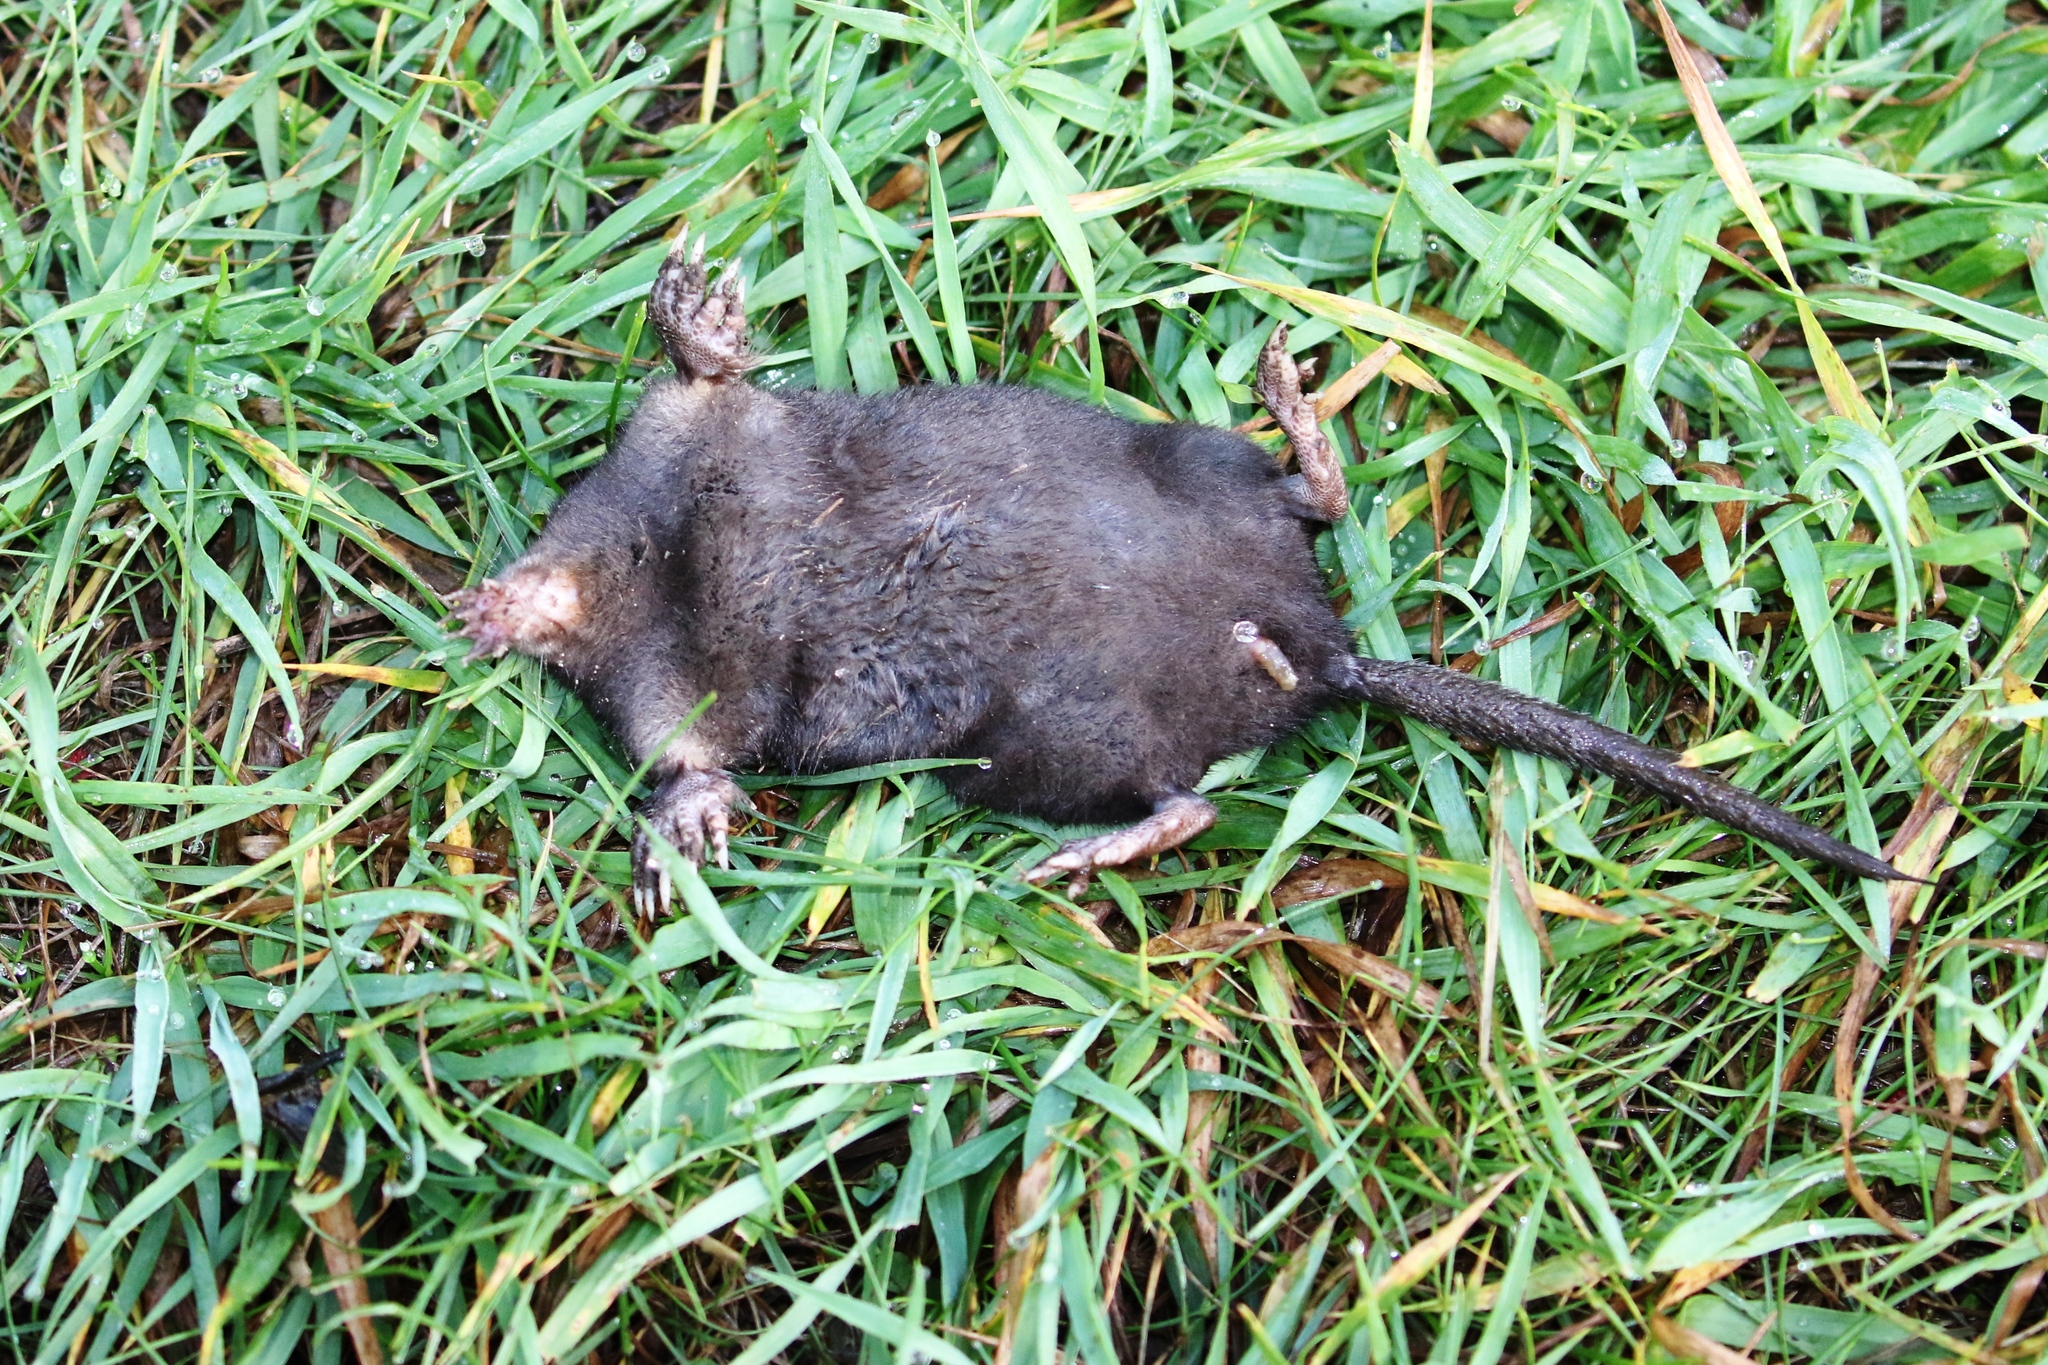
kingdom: Animalia
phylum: Chordata
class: Mammalia
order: Soricomorpha
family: Talpidae
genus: Condylura
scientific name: Condylura cristata
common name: Star-nosed mole
